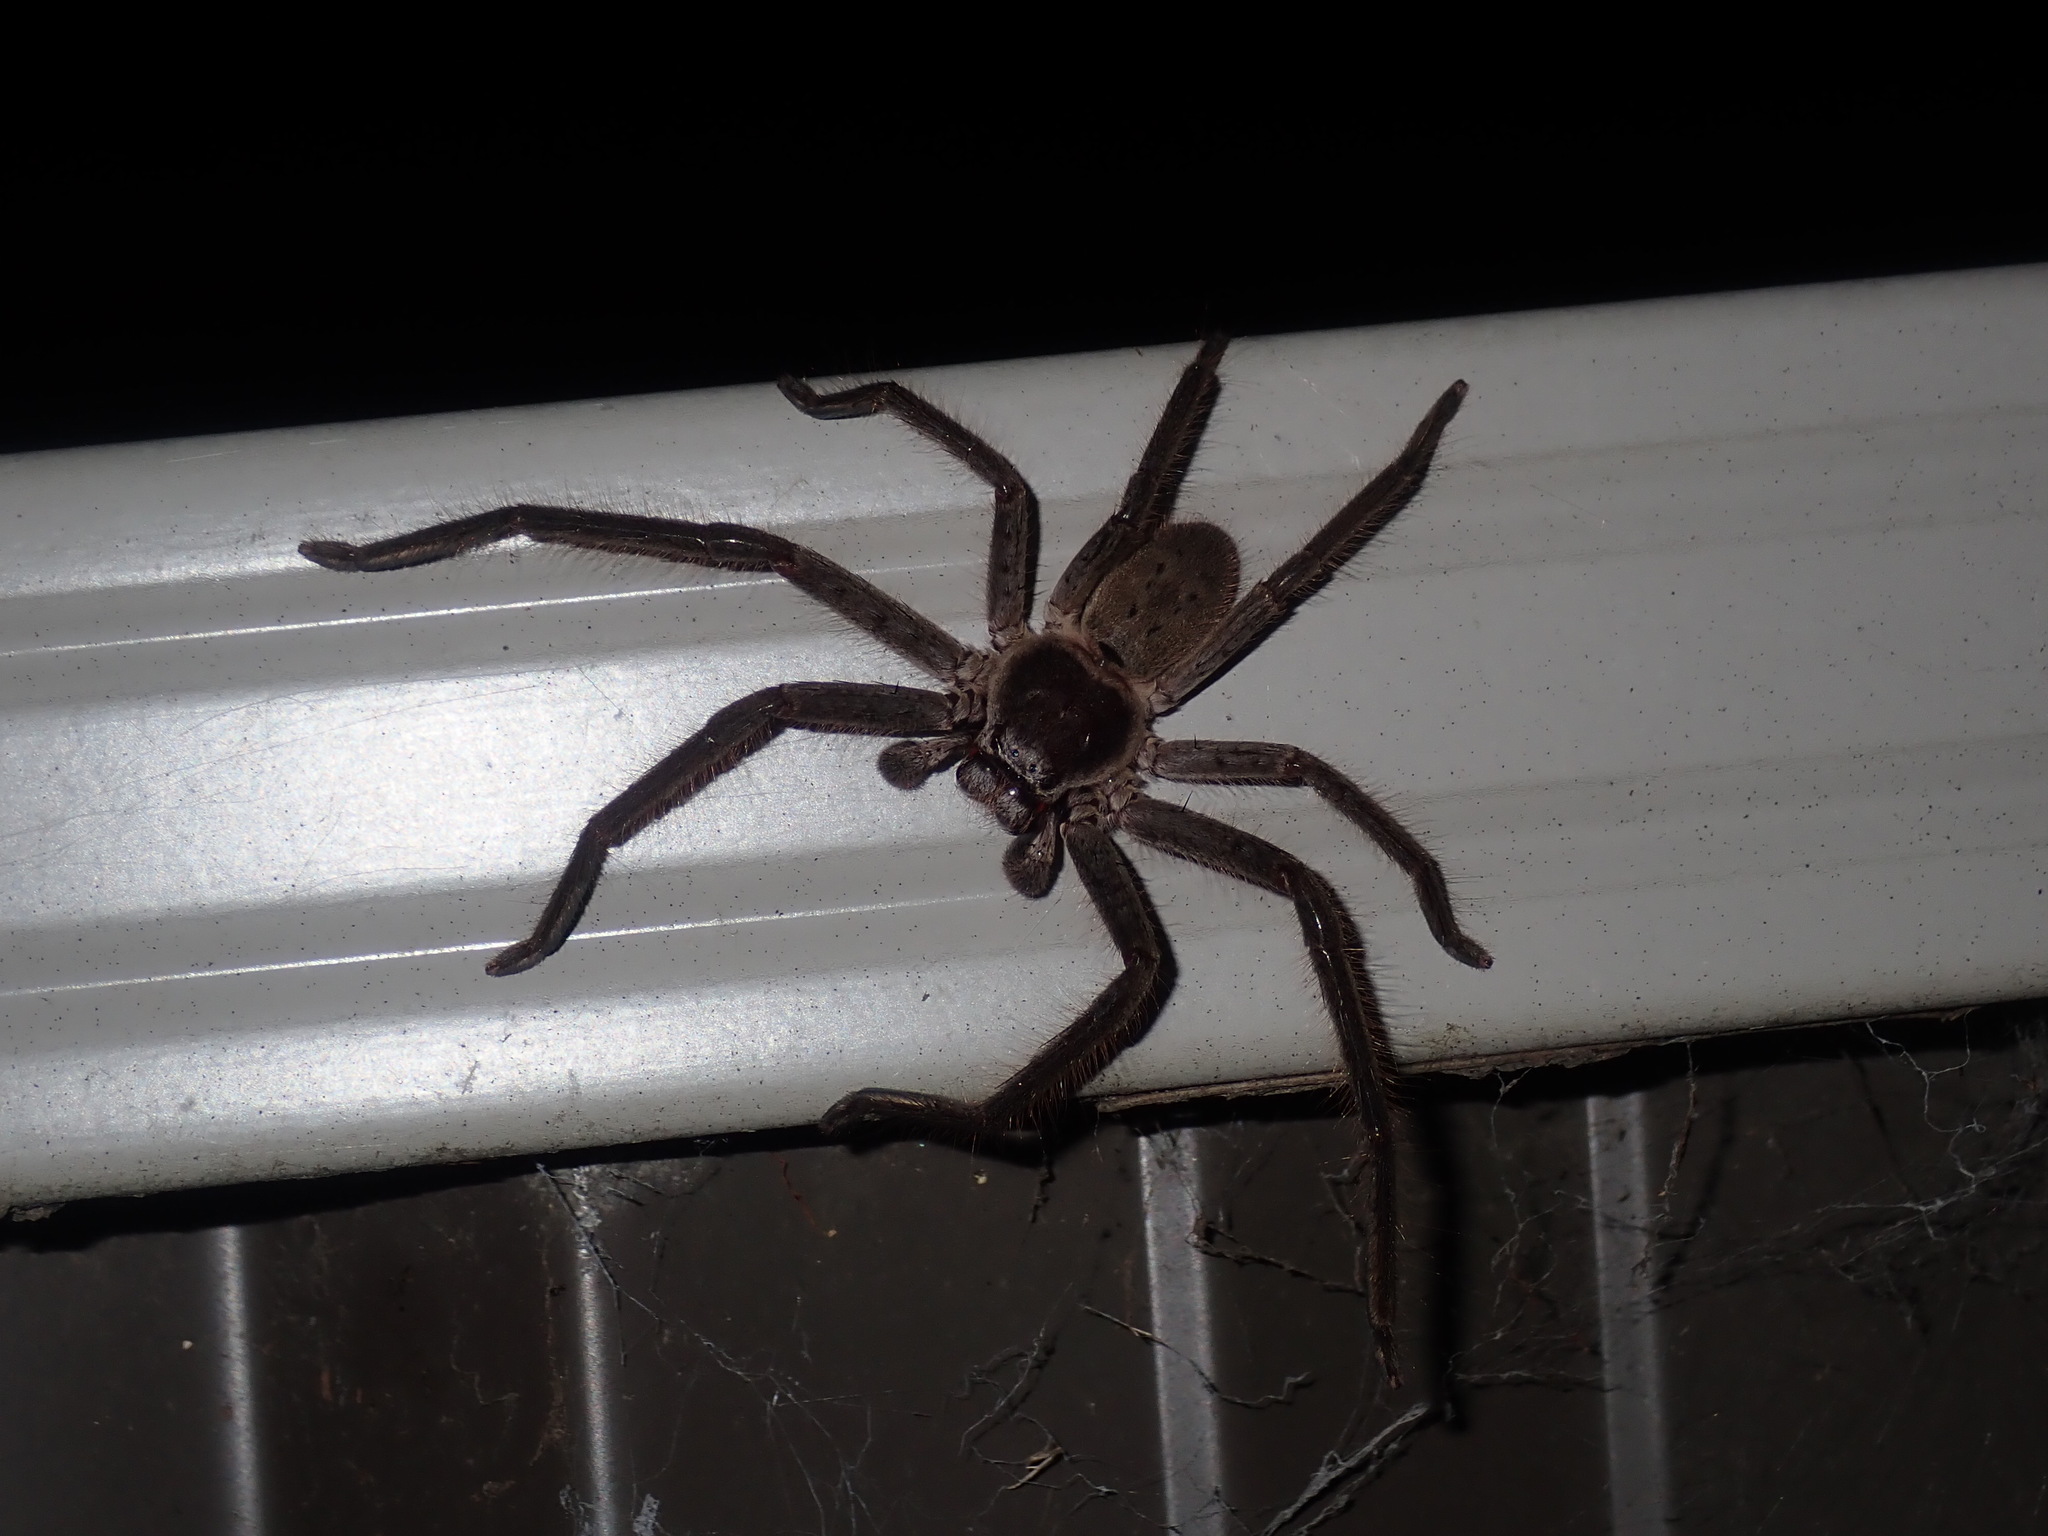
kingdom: Animalia
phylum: Arthropoda
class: Arachnida
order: Araneae
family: Sparassidae
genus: Isopeda
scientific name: Isopeda villosa
